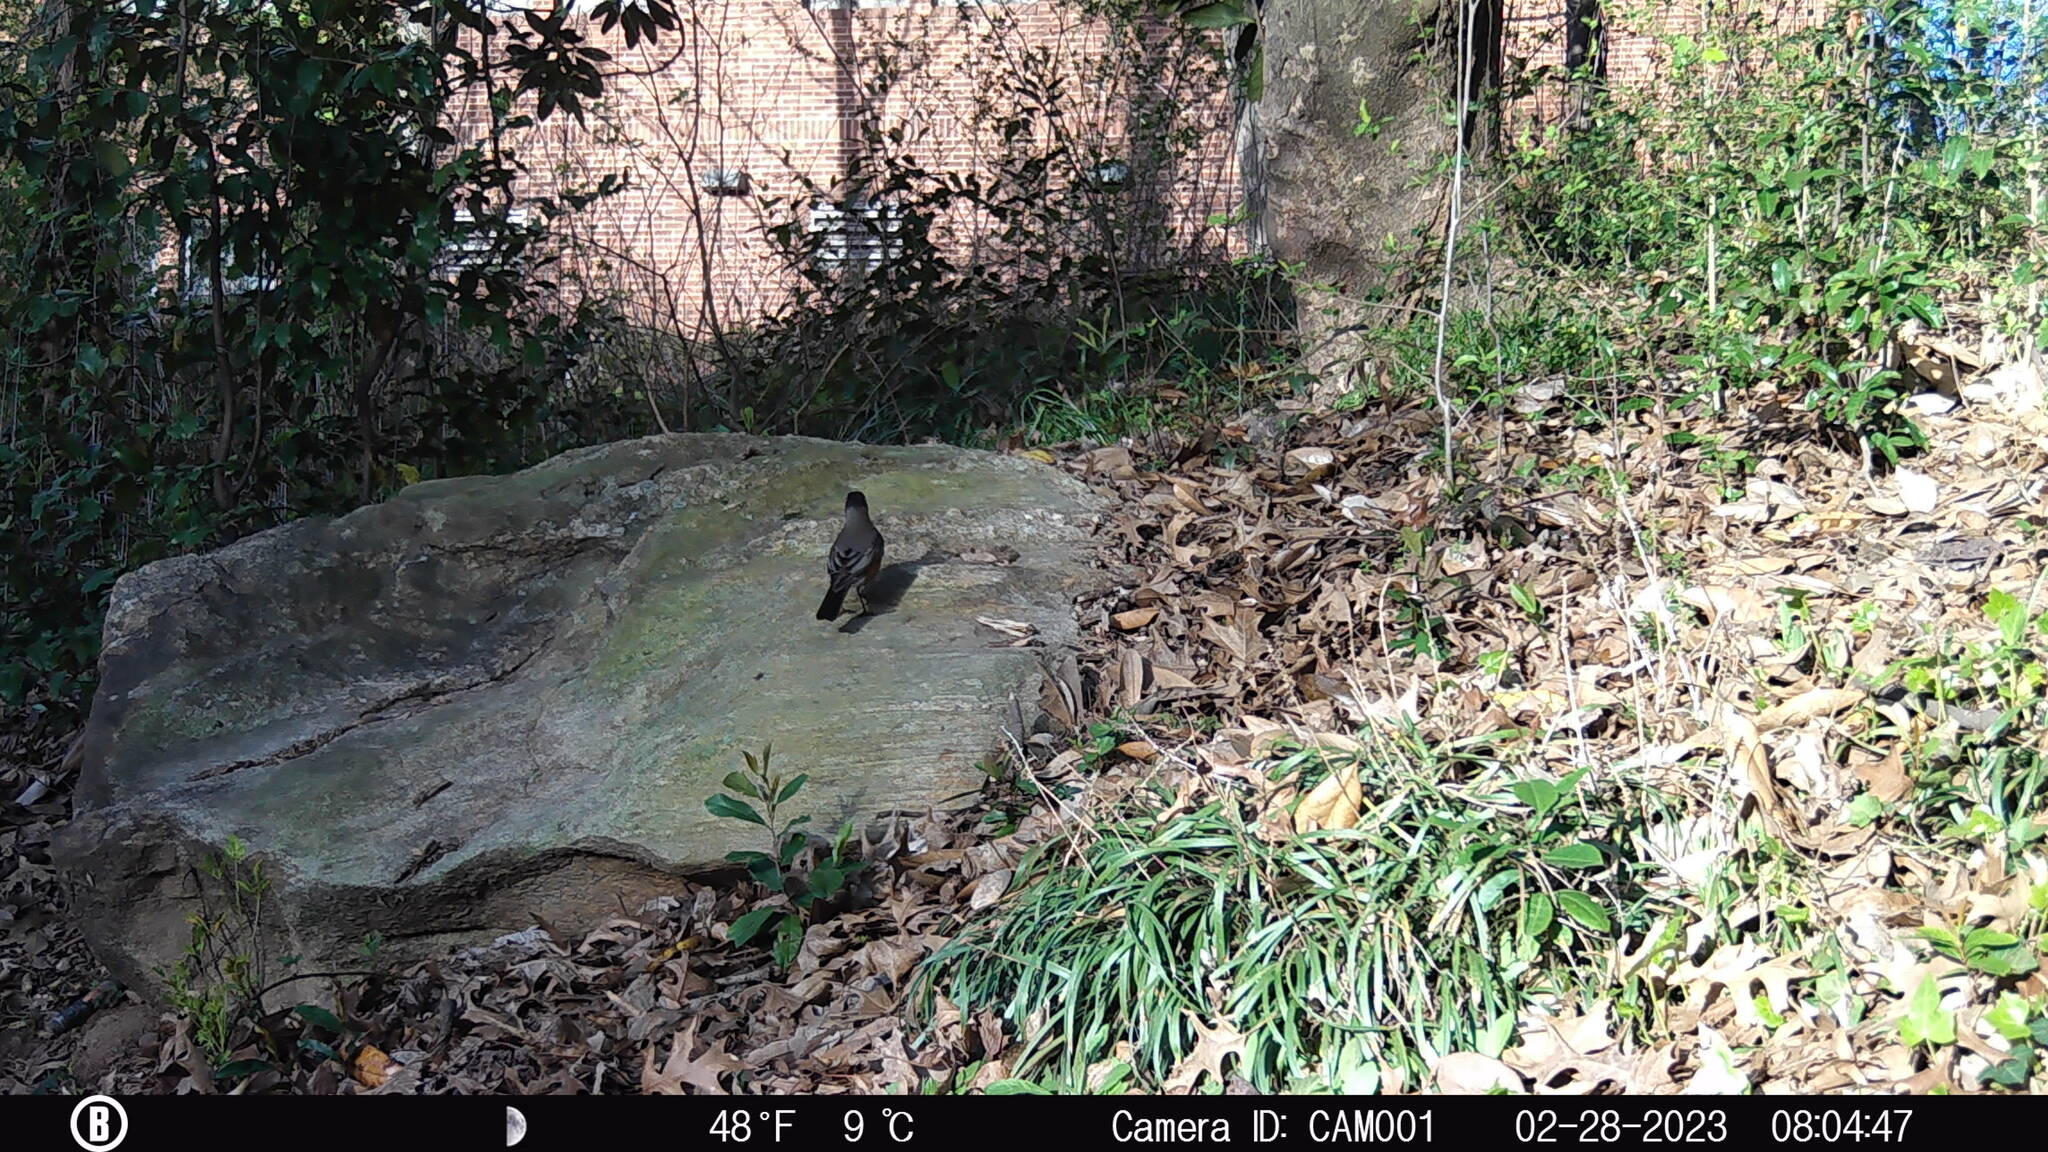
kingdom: Animalia
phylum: Chordata
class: Aves
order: Passeriformes
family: Turdidae
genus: Turdus
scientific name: Turdus migratorius
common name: American robin
